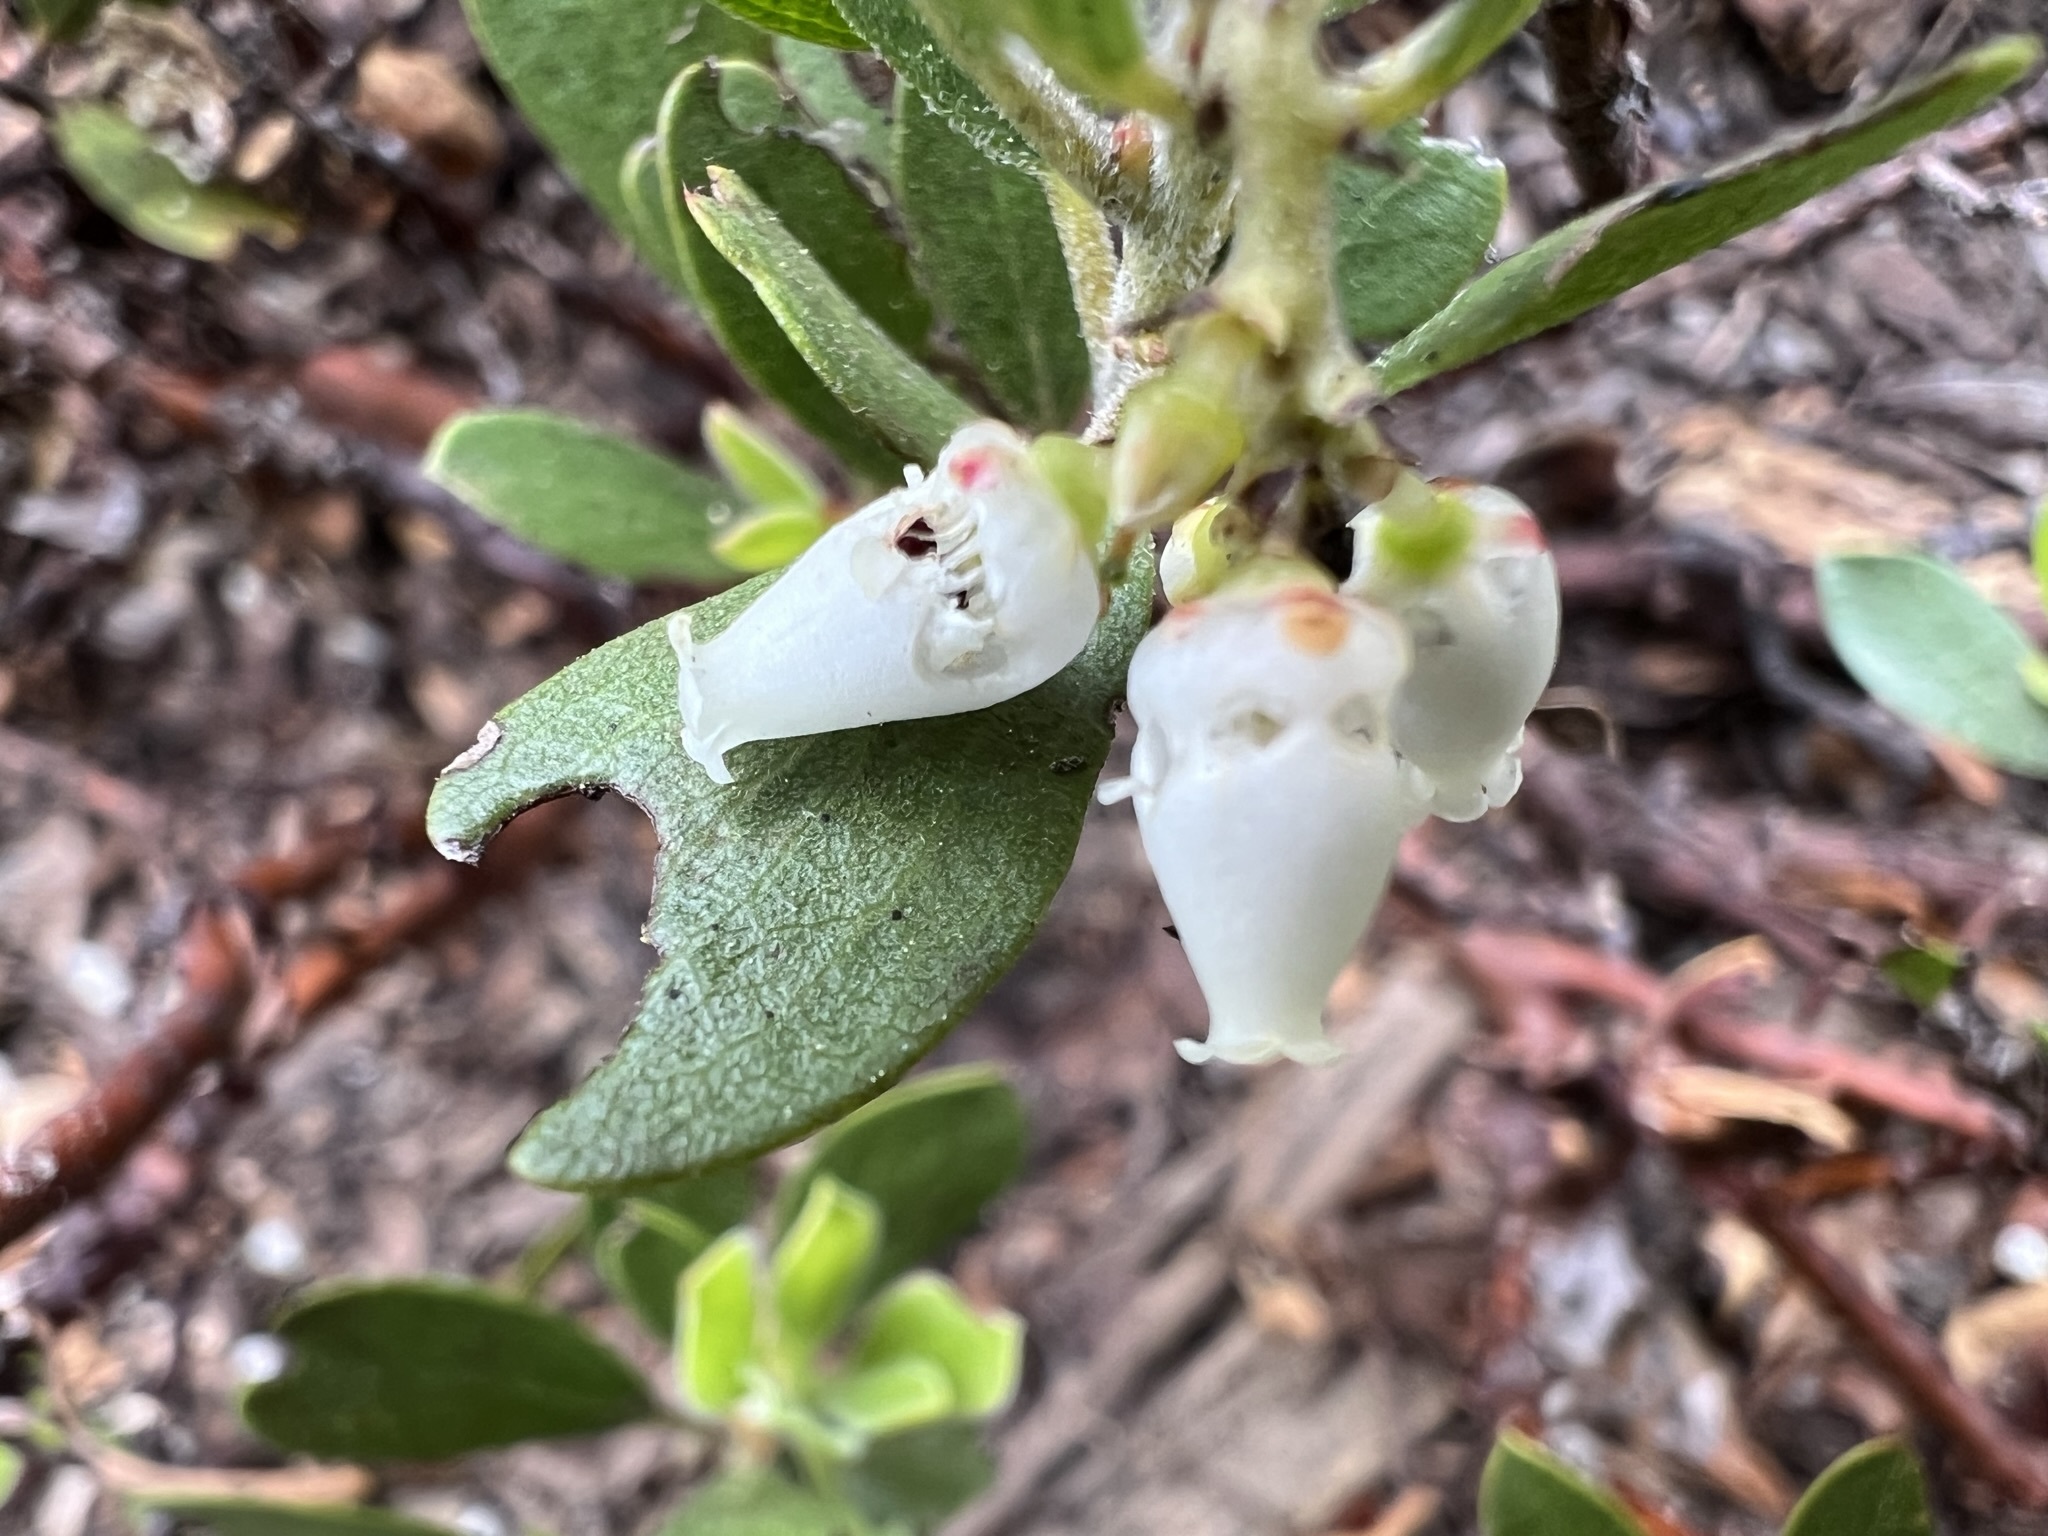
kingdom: Plantae
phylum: Tracheophyta
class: Magnoliopsida
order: Ericales
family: Ericaceae
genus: Arctostaphylos
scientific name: Arctostaphylos nevadensis
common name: Pinemat manzanita
